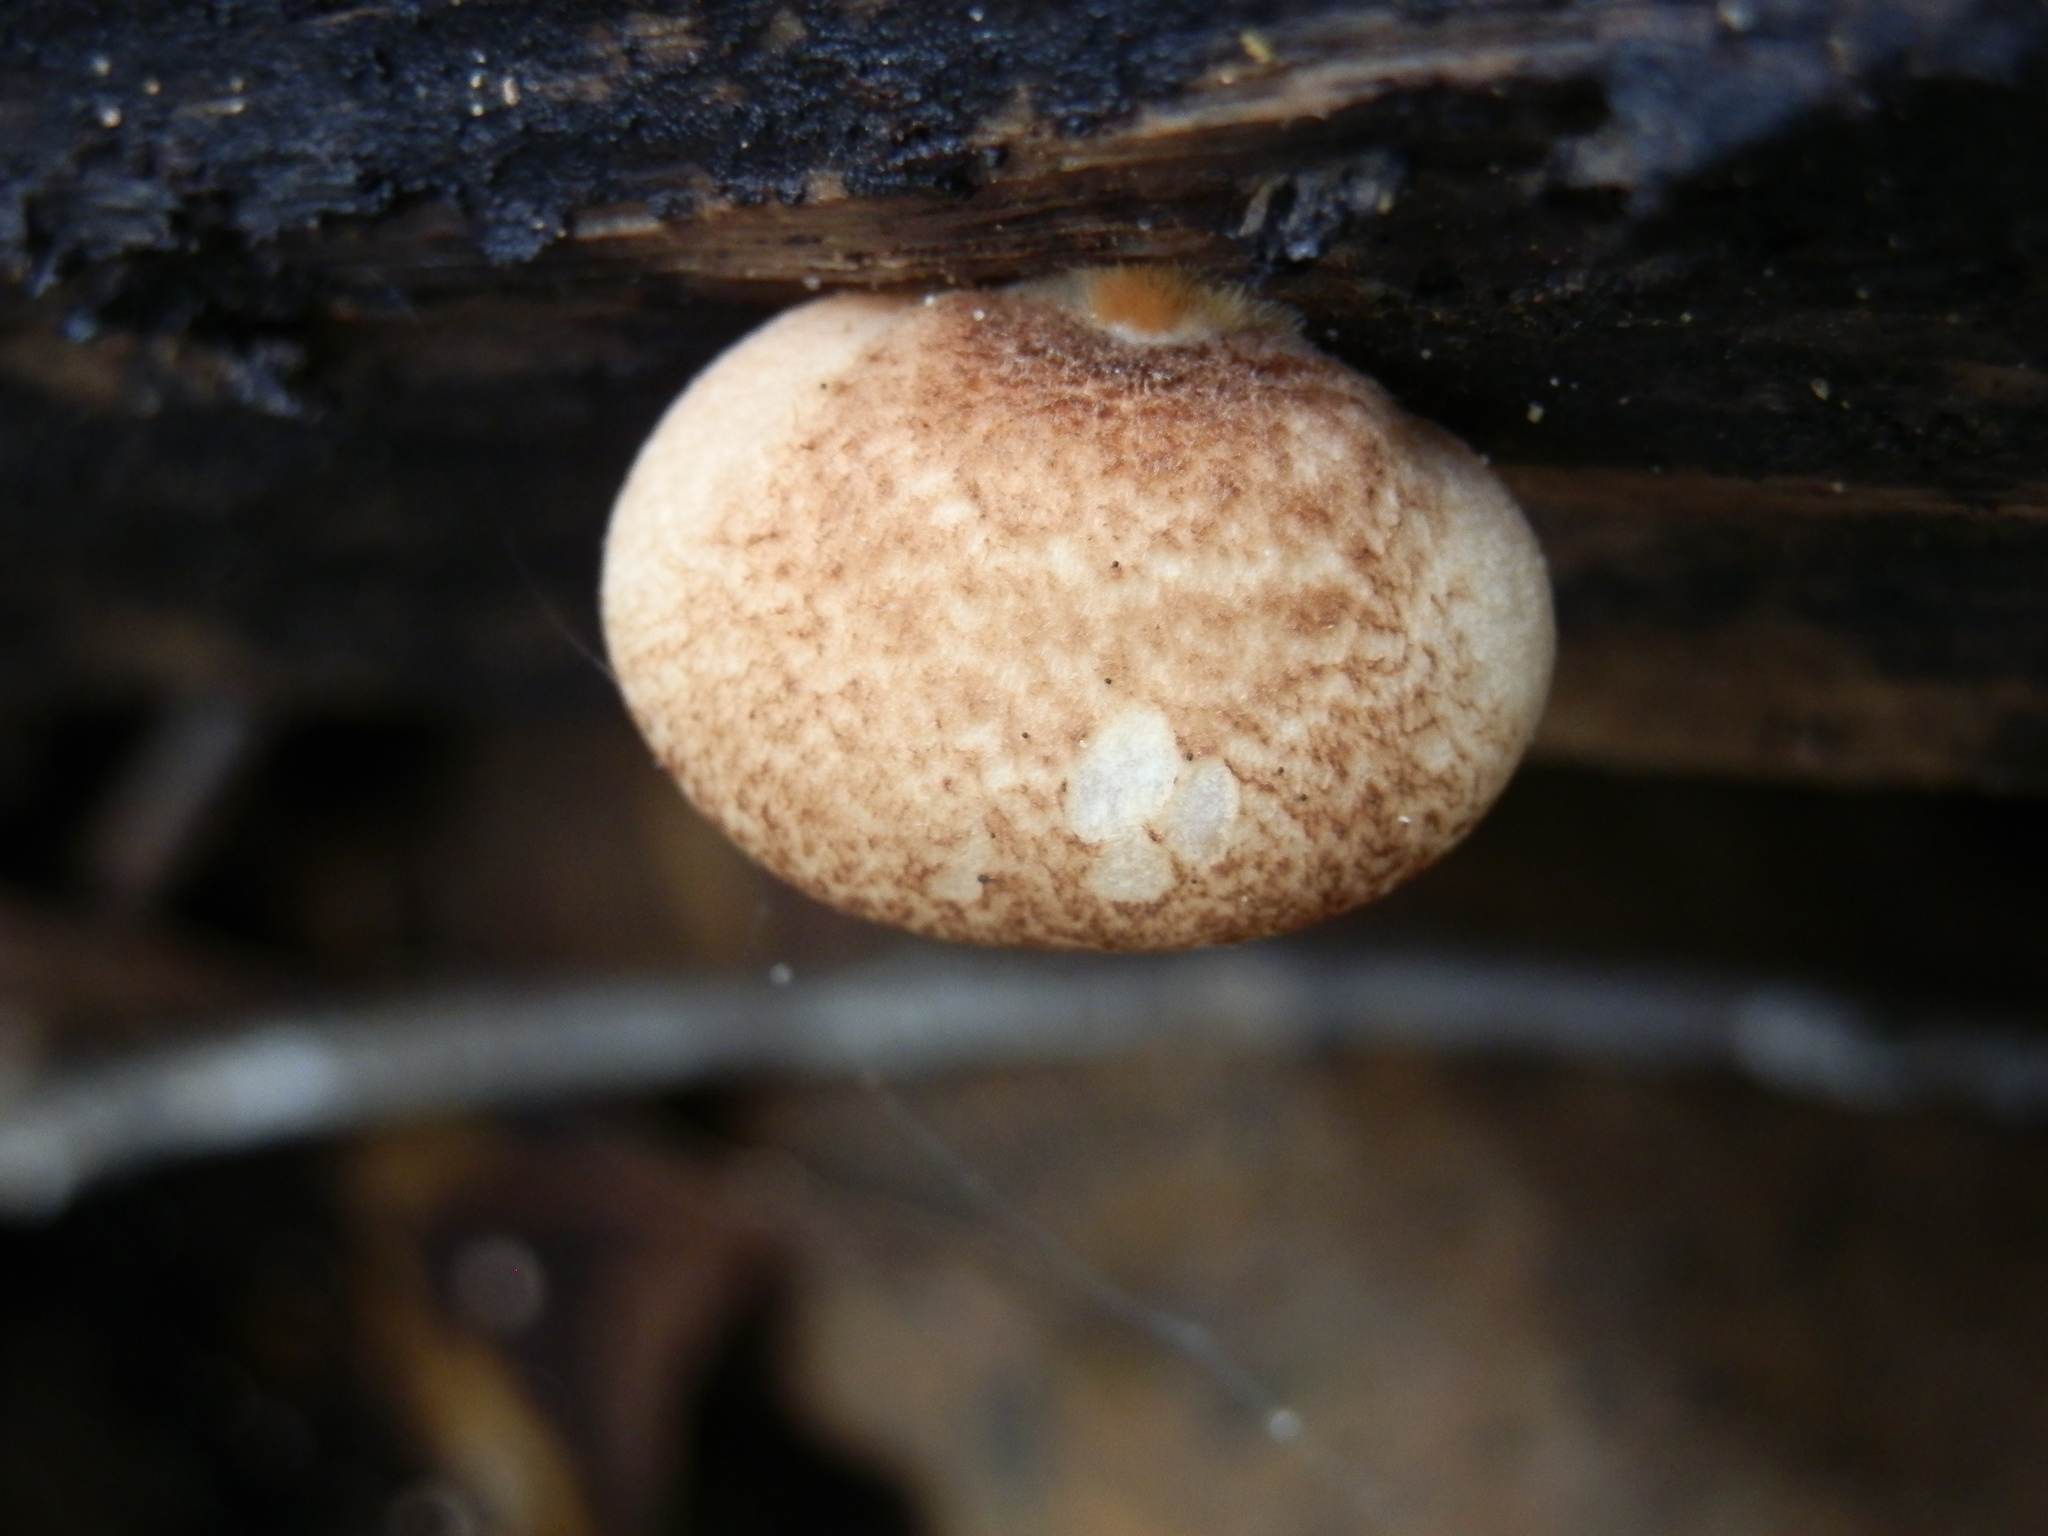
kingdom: Fungi
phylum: Basidiomycota
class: Agaricomycetes
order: Agaricales
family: Crepidotaceae
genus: Crepidotus
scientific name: Crepidotus crocophyllus
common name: Saffron oysterling
